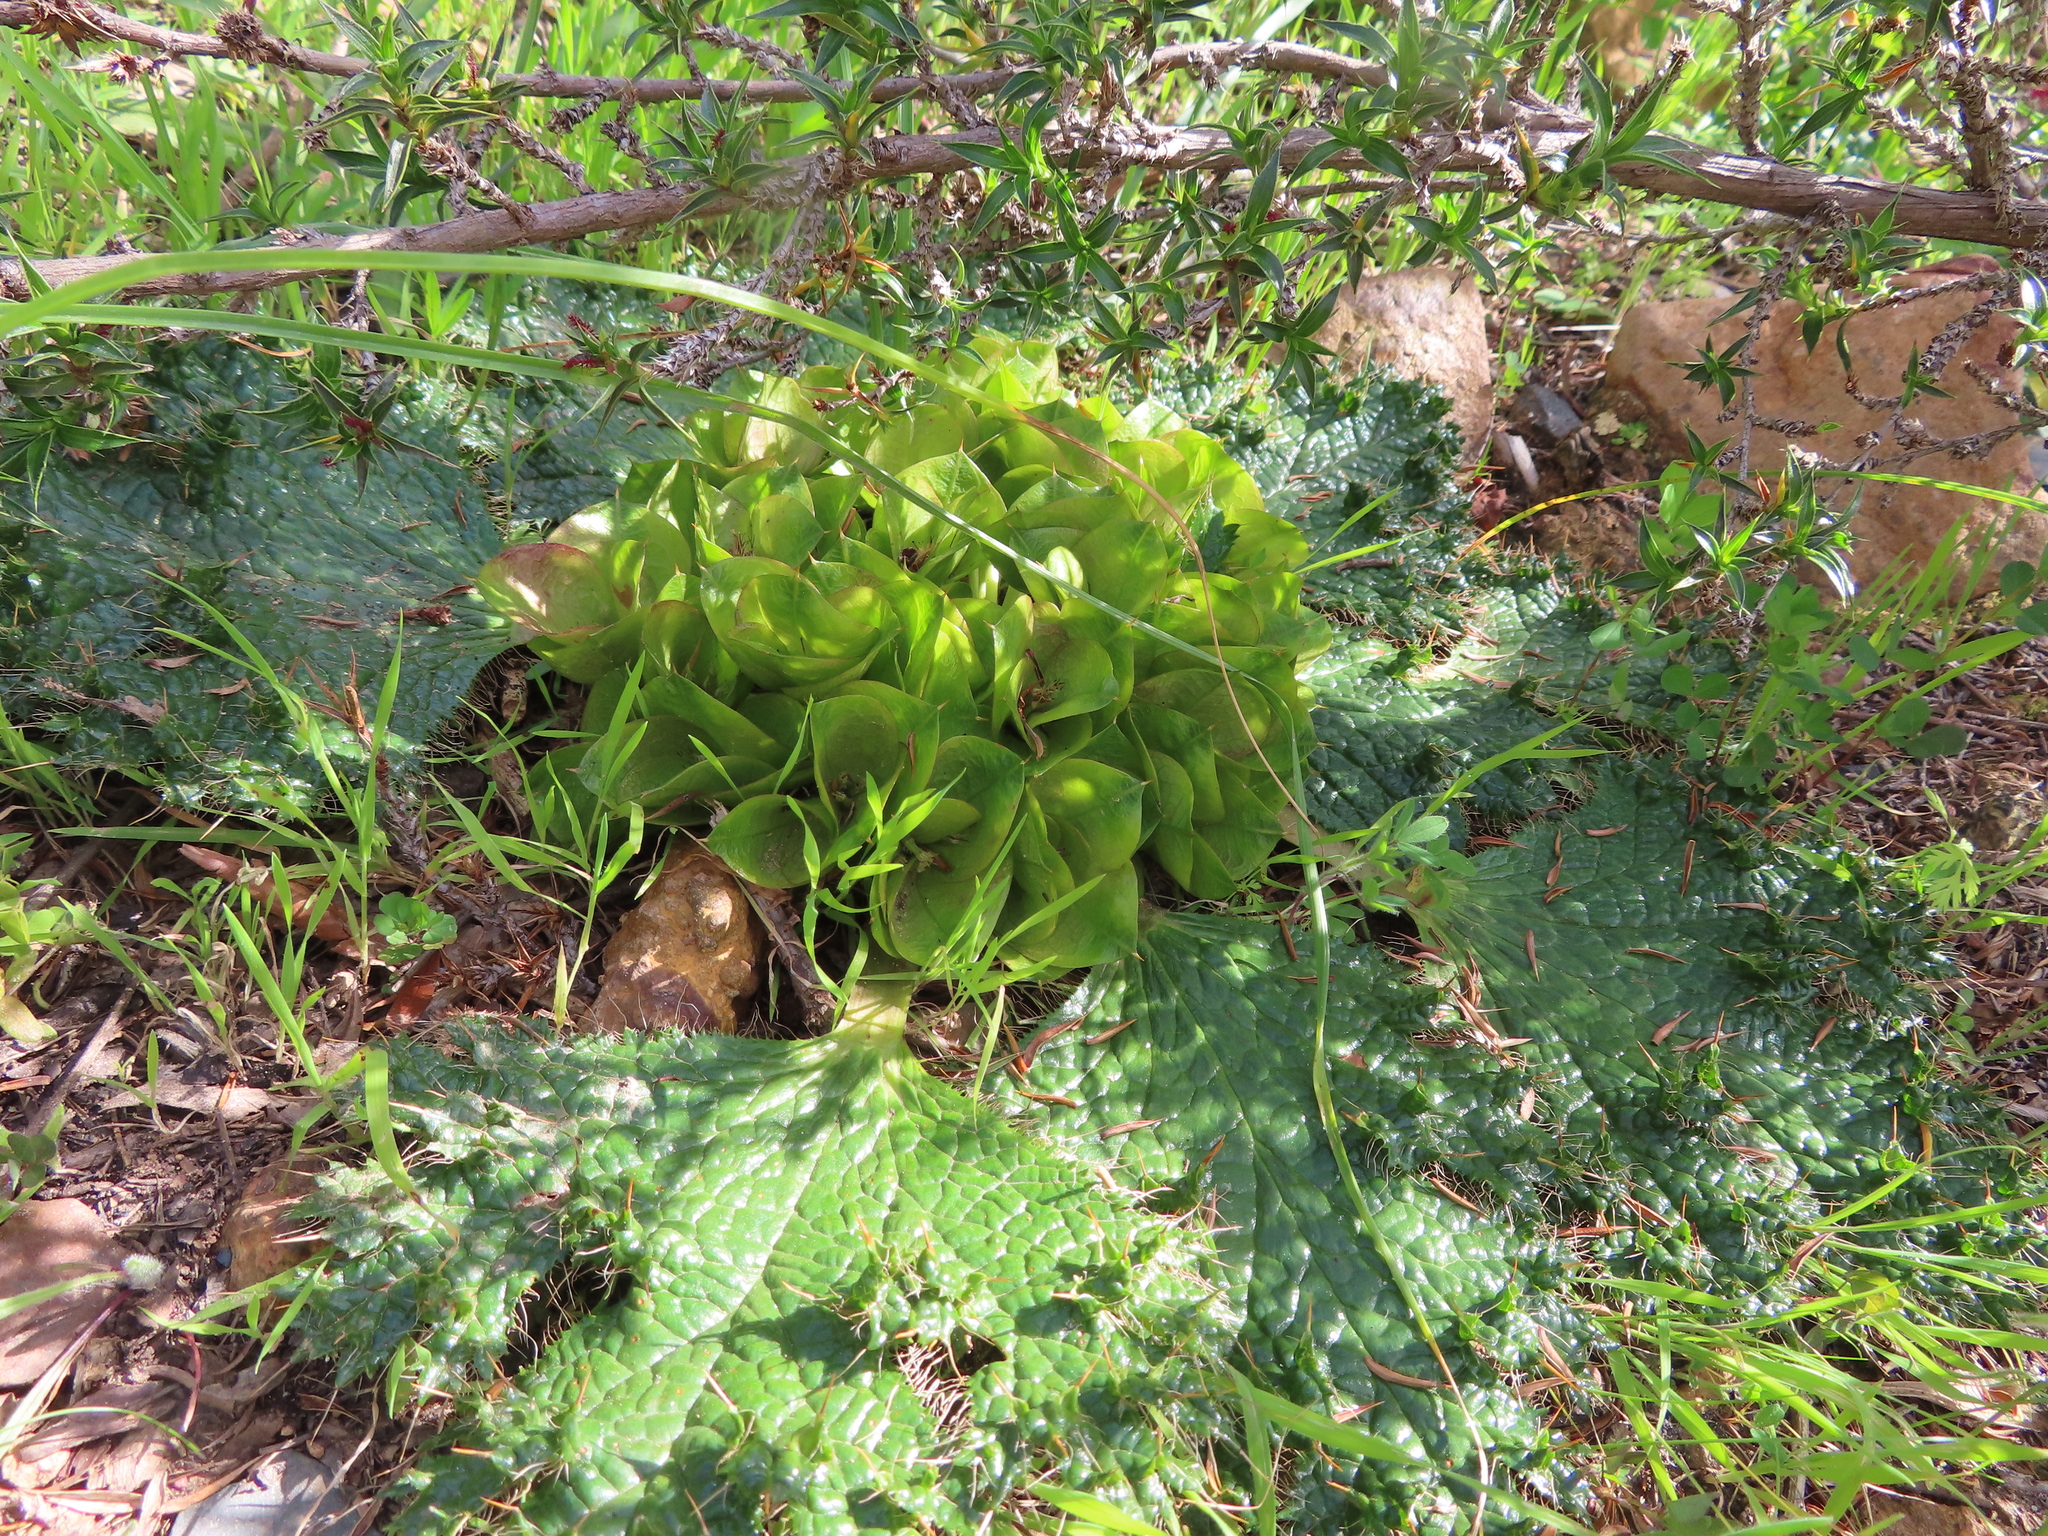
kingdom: Plantae
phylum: Tracheophyta
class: Magnoliopsida
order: Apiales
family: Apiaceae
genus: Arctopus
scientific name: Arctopus monacanthus
